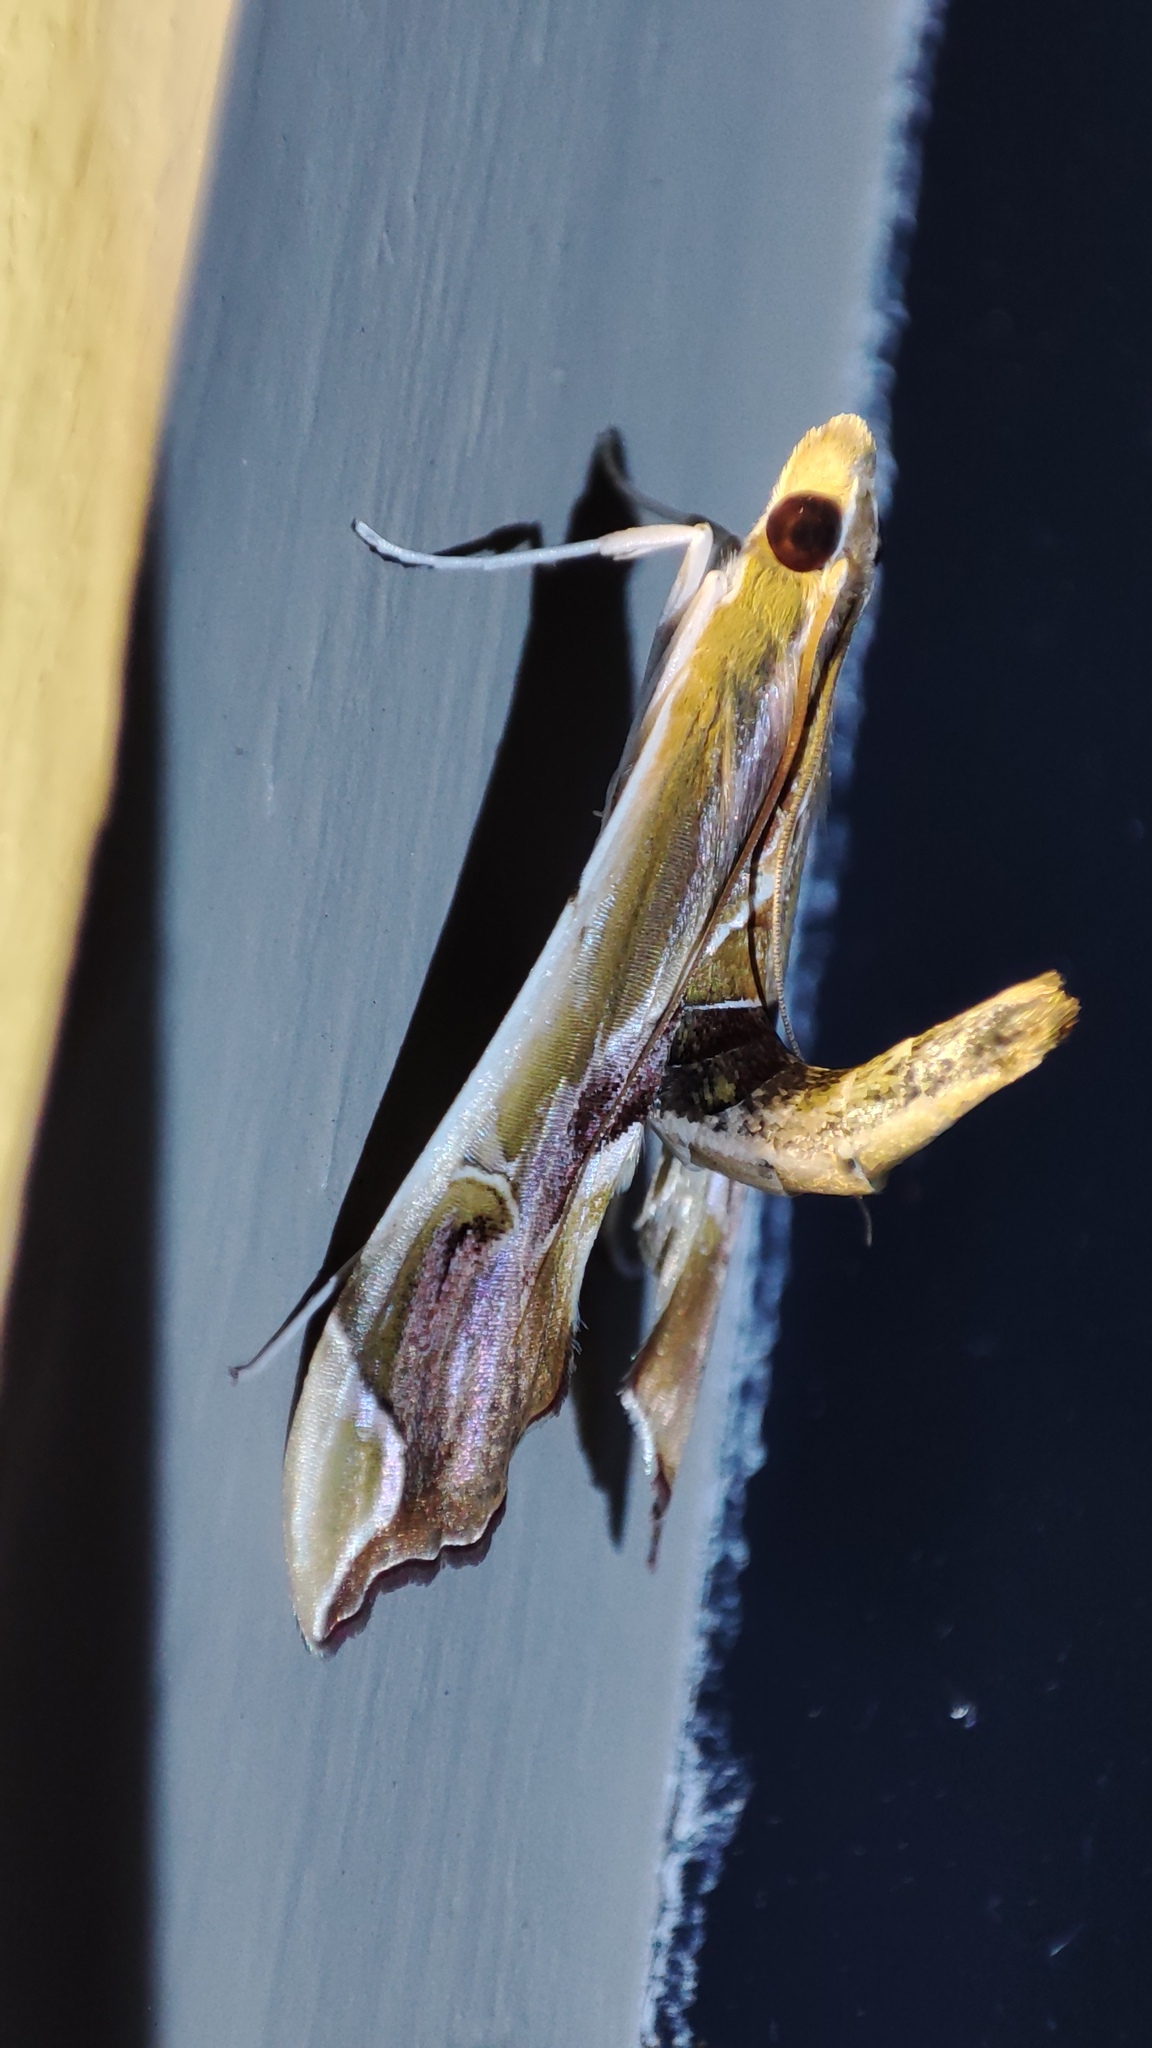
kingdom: Animalia
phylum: Arthropoda
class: Insecta
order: Lepidoptera
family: Crambidae
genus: Agathodes
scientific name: Agathodes musivalis
